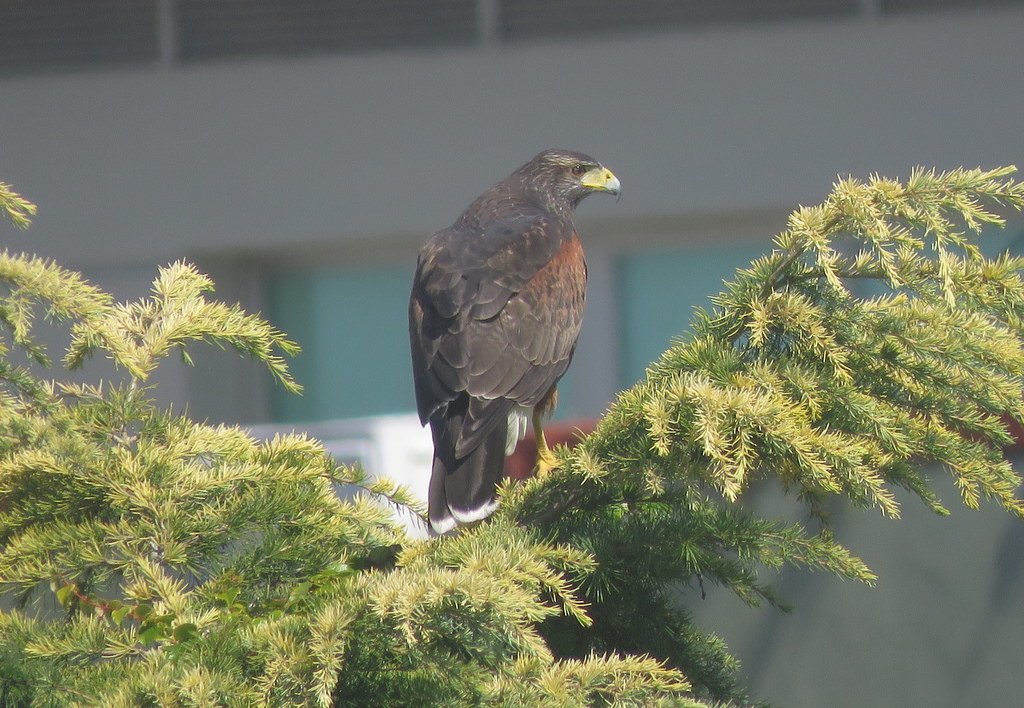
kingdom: Animalia
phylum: Chordata
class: Aves
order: Accipitriformes
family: Accipitridae
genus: Parabuteo
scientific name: Parabuteo unicinctus
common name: Harris's hawk
